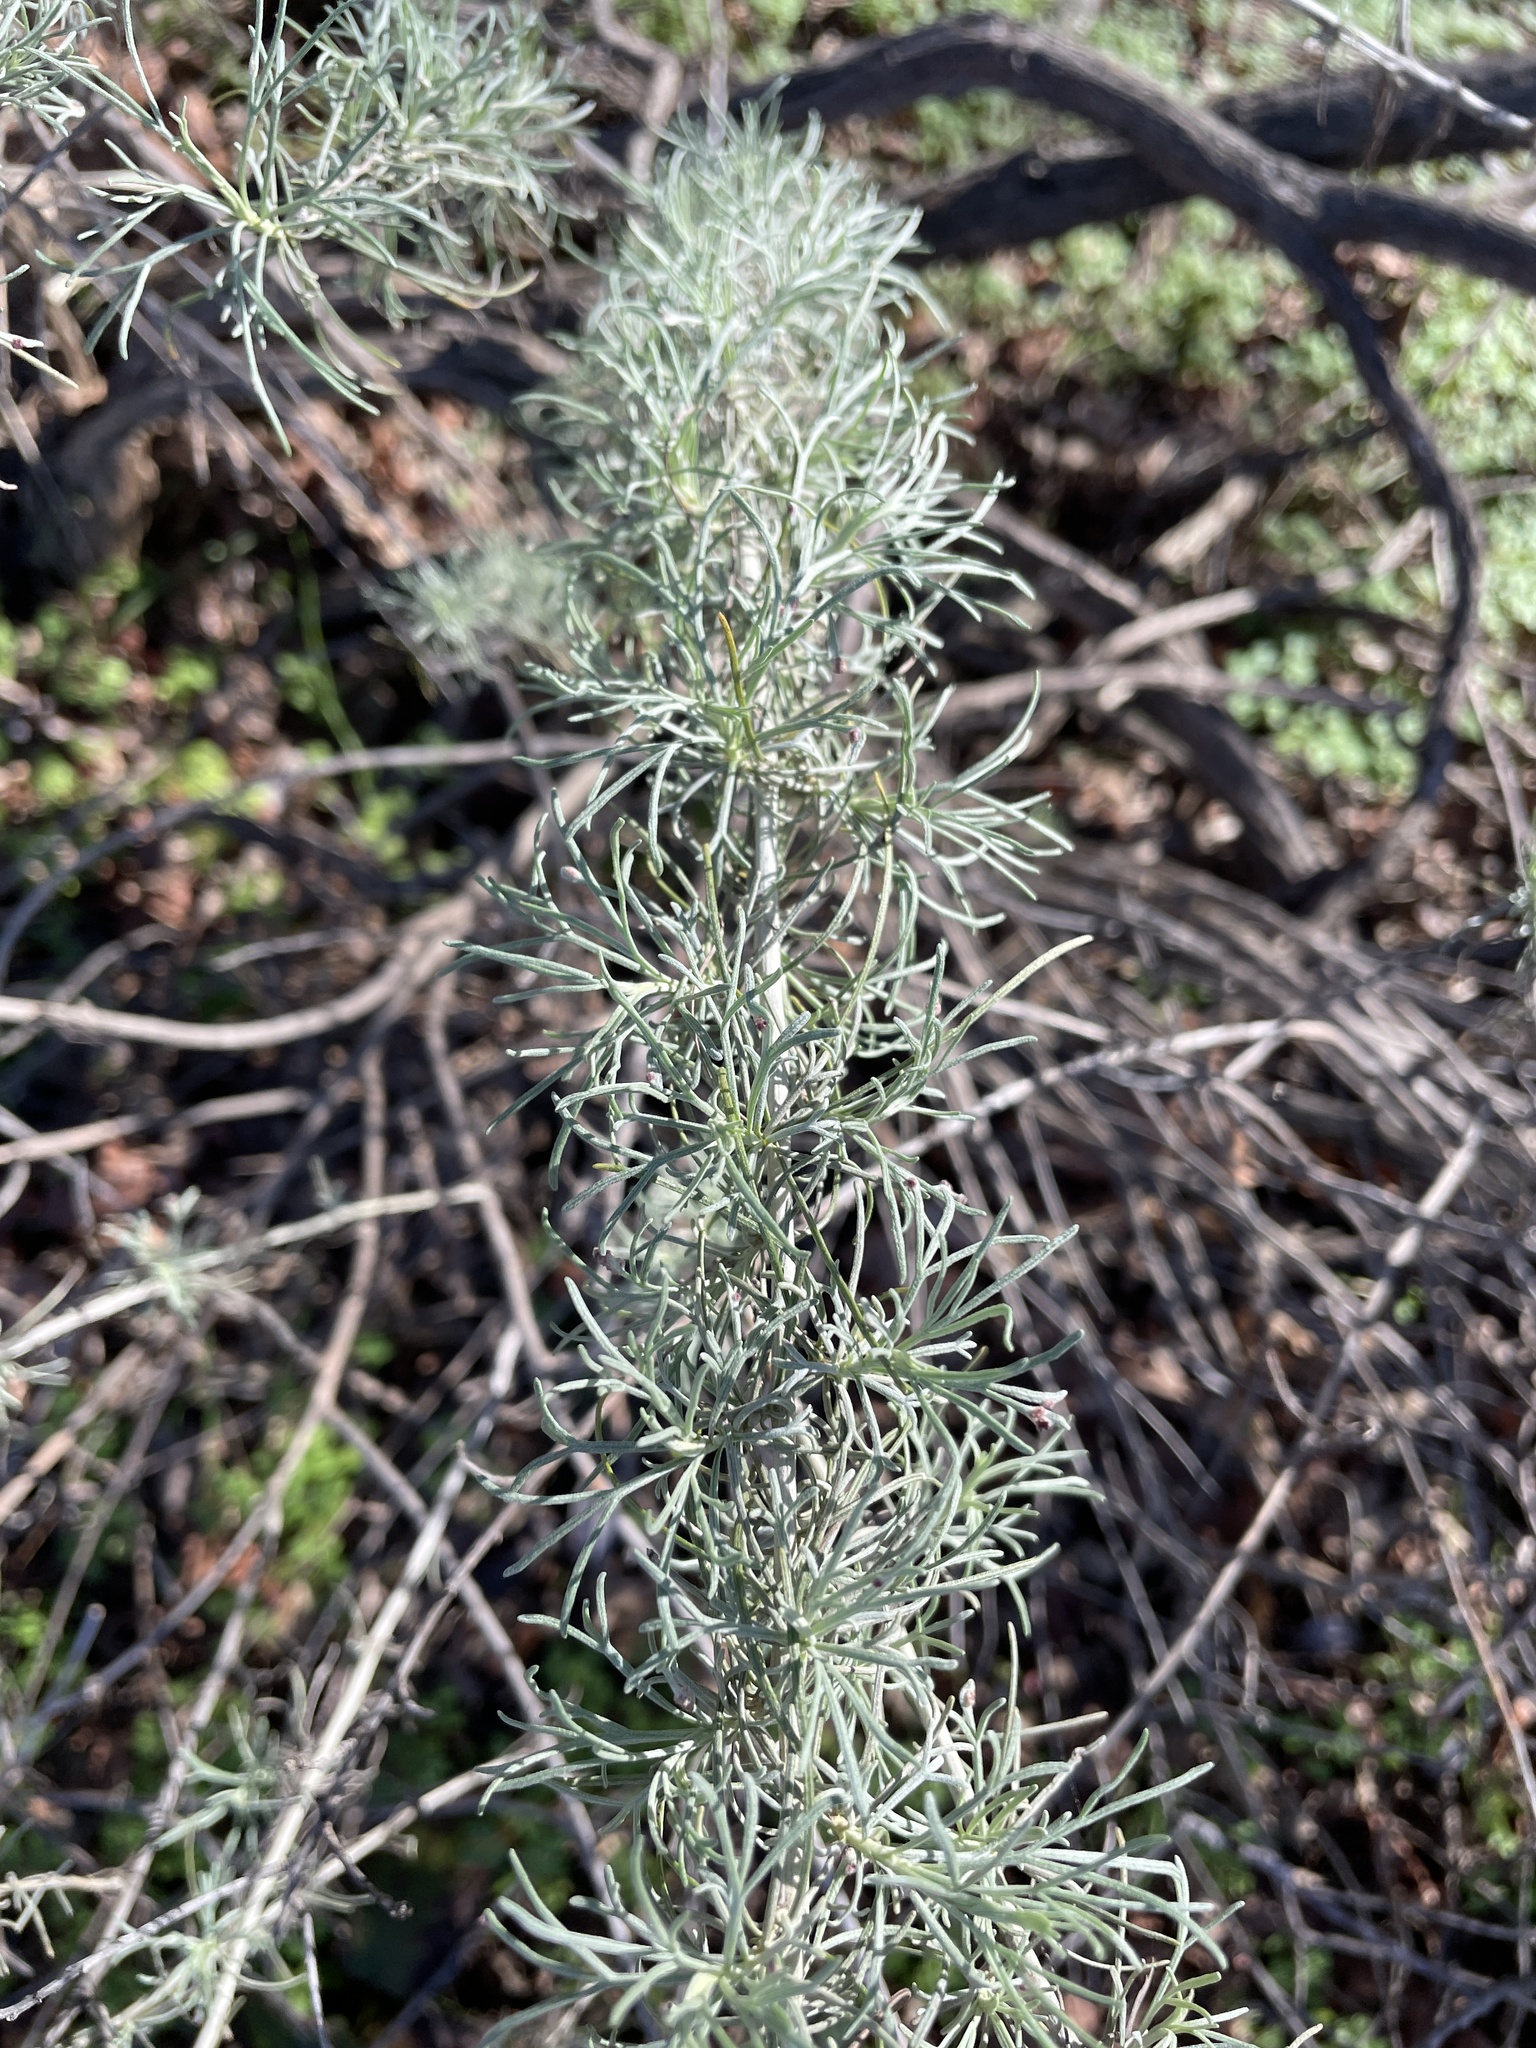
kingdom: Plantae
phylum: Tracheophyta
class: Magnoliopsida
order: Asterales
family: Asteraceae
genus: Artemisia
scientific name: Artemisia californica
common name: California sagebrush
